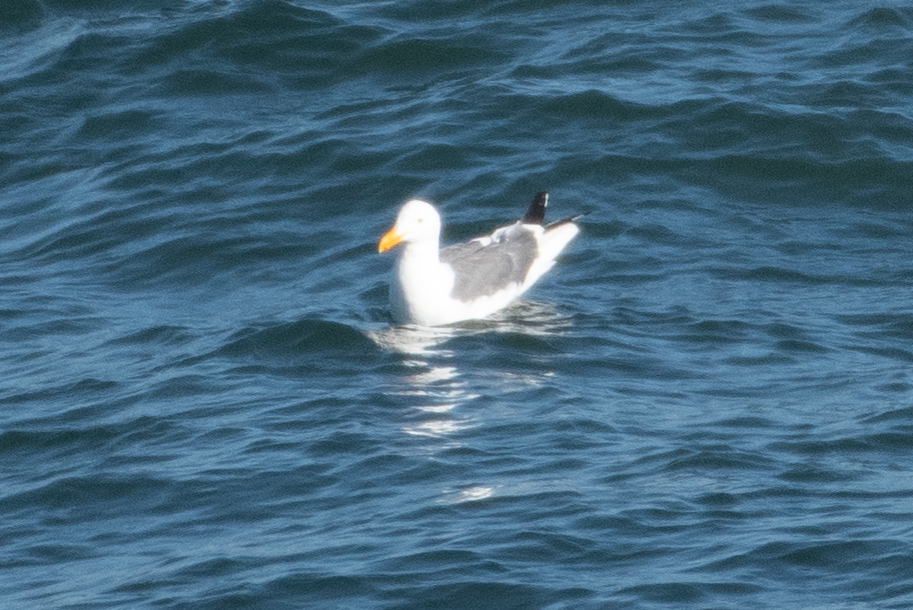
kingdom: Animalia
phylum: Chordata
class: Aves
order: Charadriiformes
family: Laridae
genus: Larus
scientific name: Larus occidentalis
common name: Western gull
